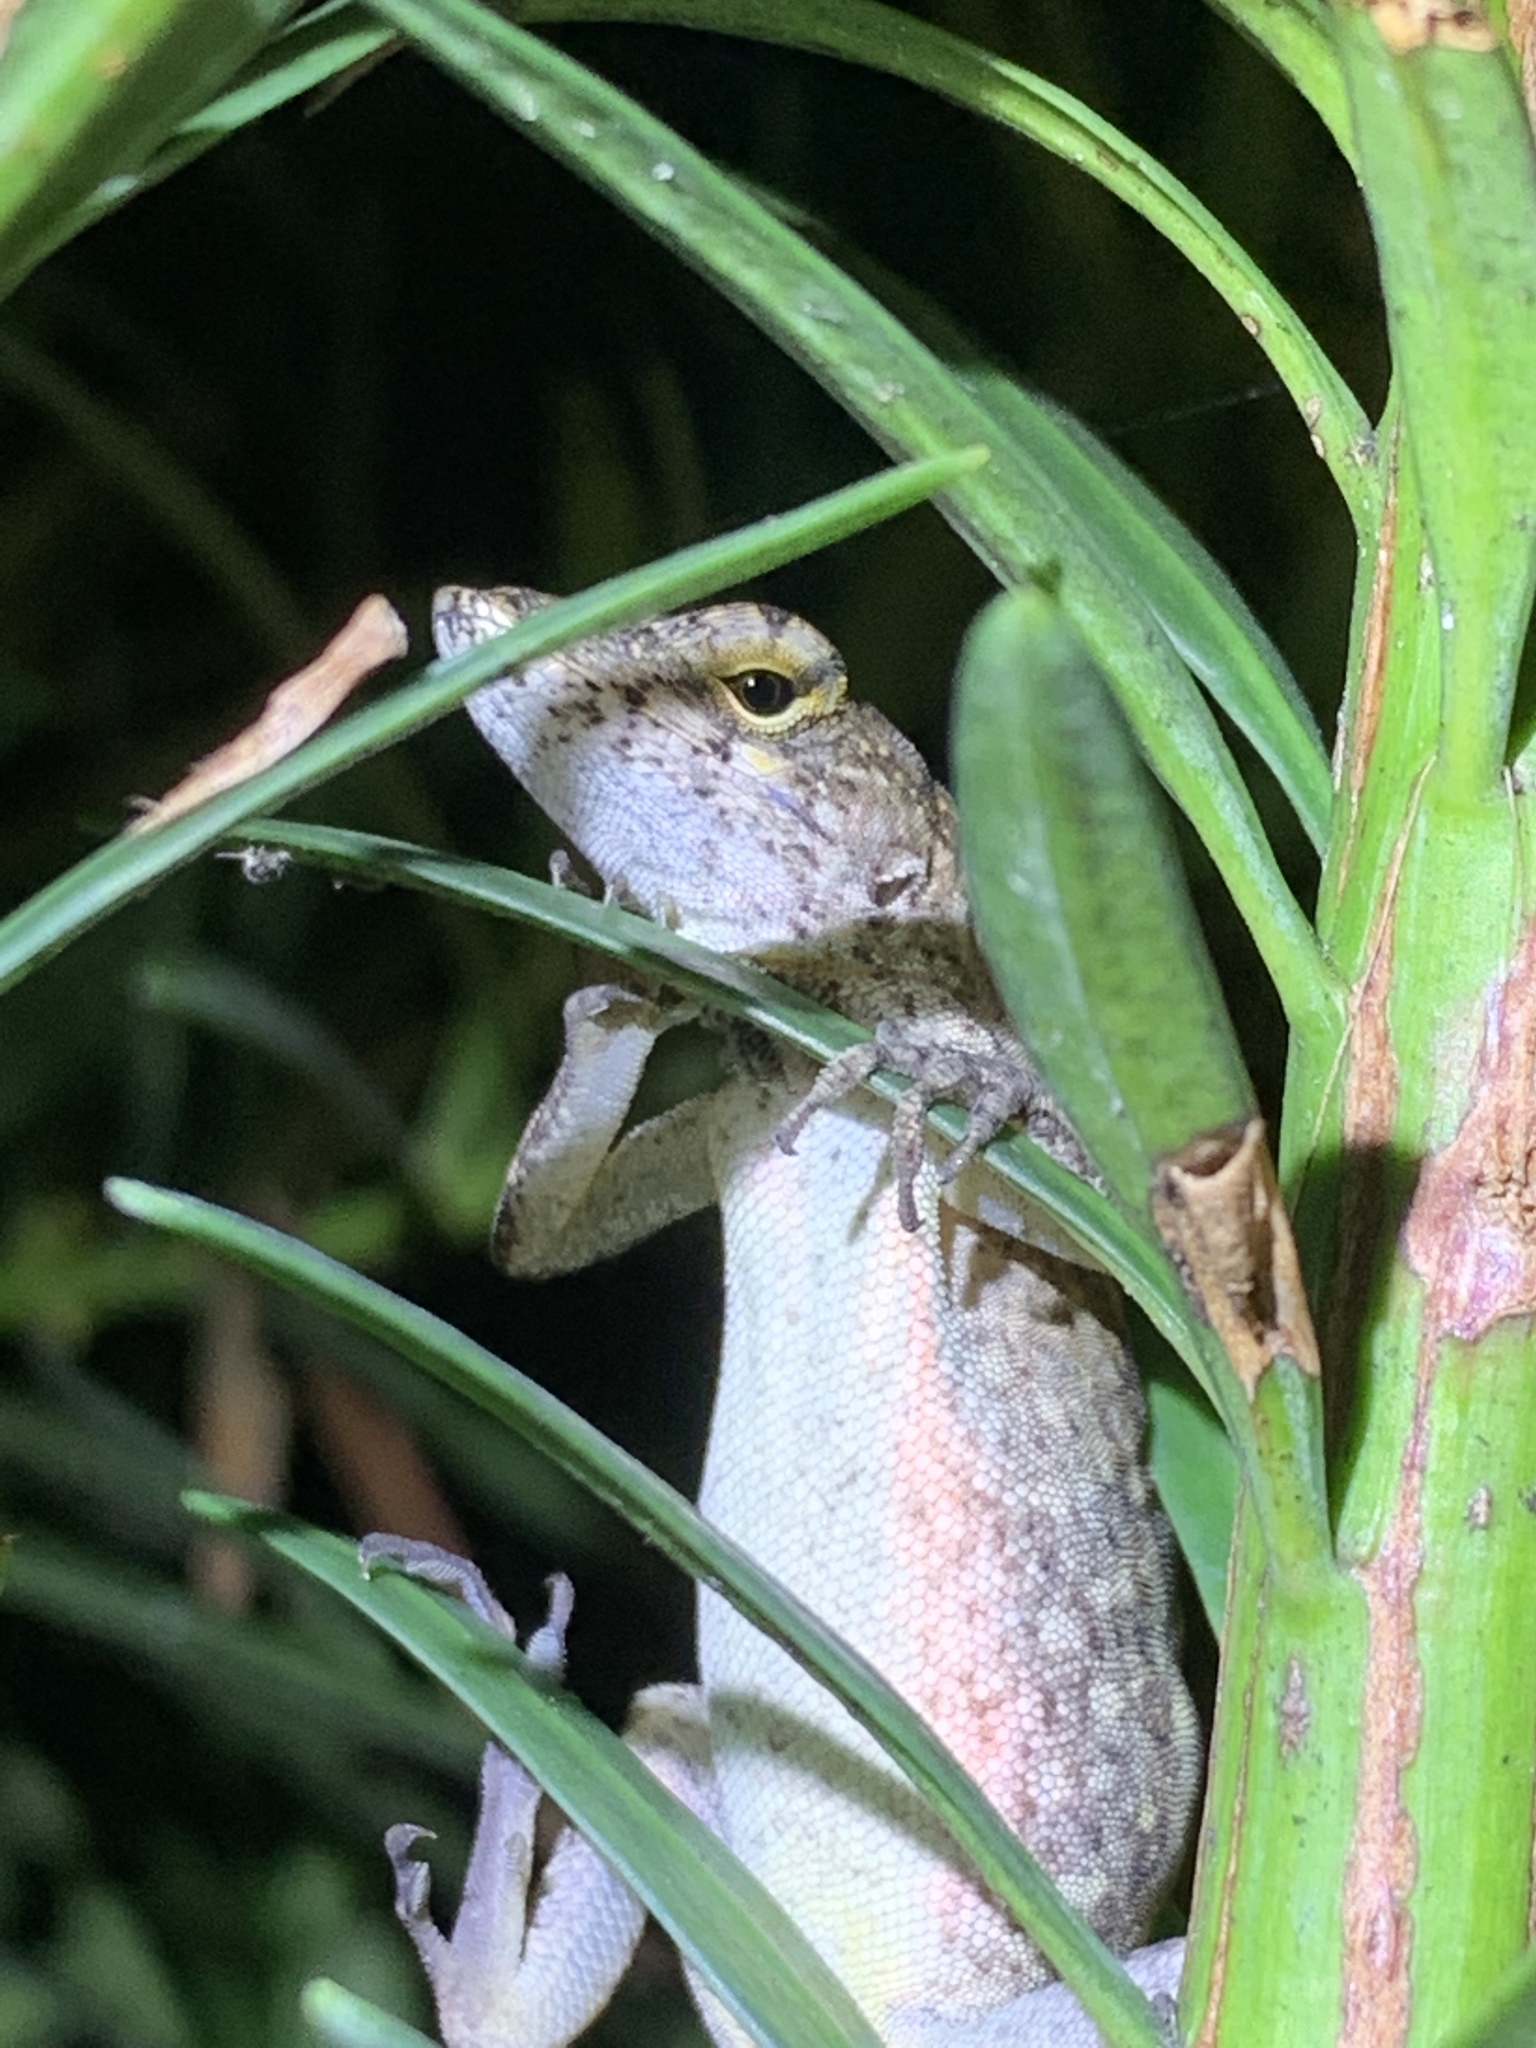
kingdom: Animalia
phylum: Chordata
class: Squamata
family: Dactyloidae
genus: Anolis
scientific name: Anolis sagrei
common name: Brown anole
